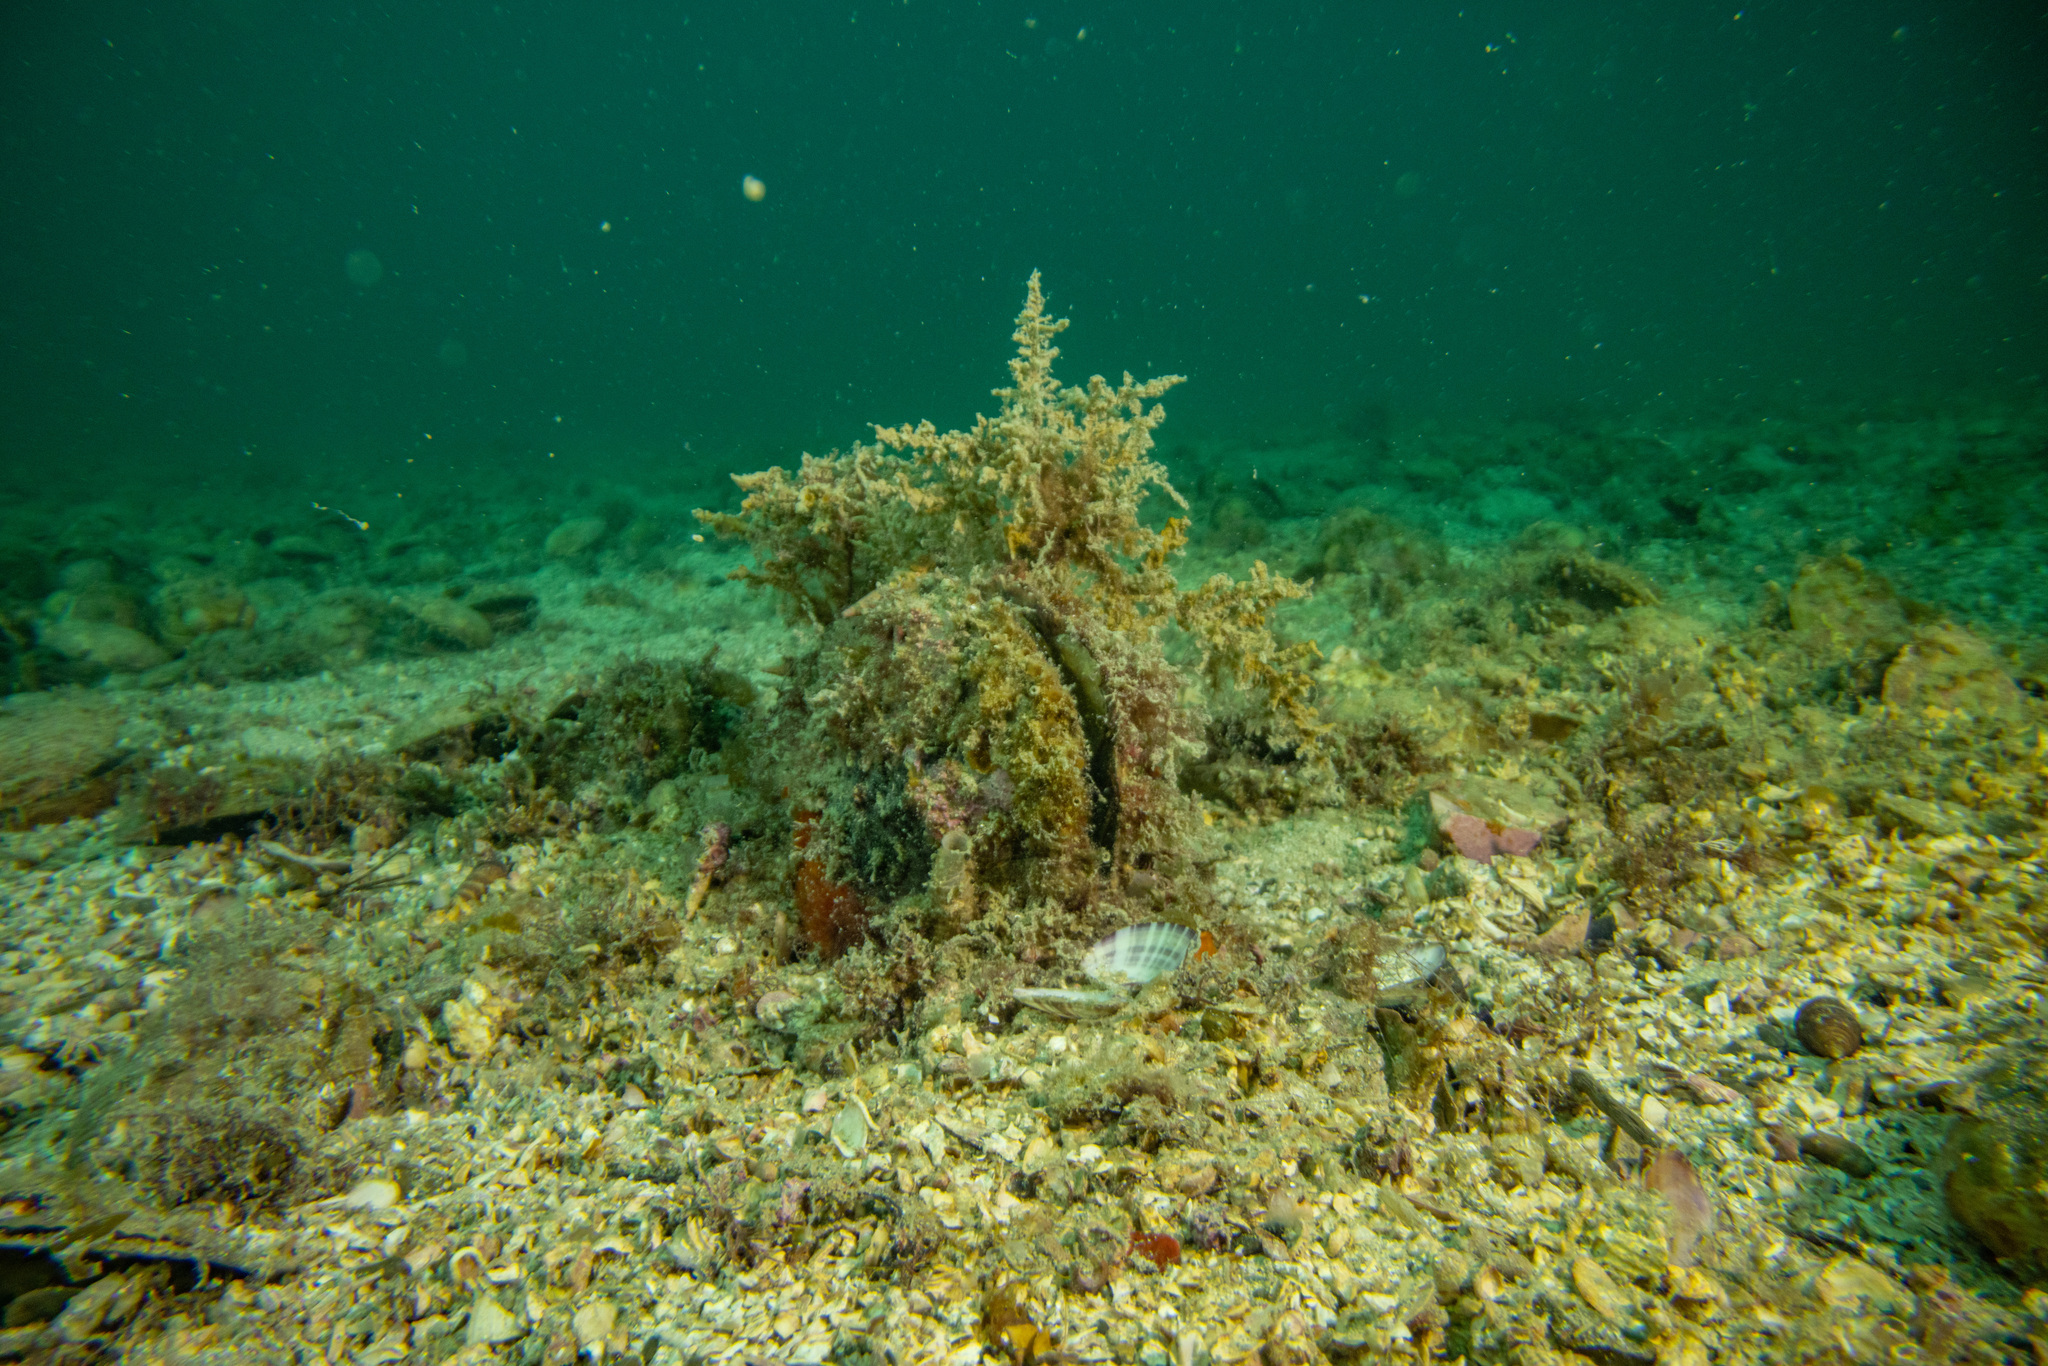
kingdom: Animalia
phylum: Mollusca
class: Bivalvia
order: Ostreida
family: Pinnidae
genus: Atrina
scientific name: Atrina zelandica
